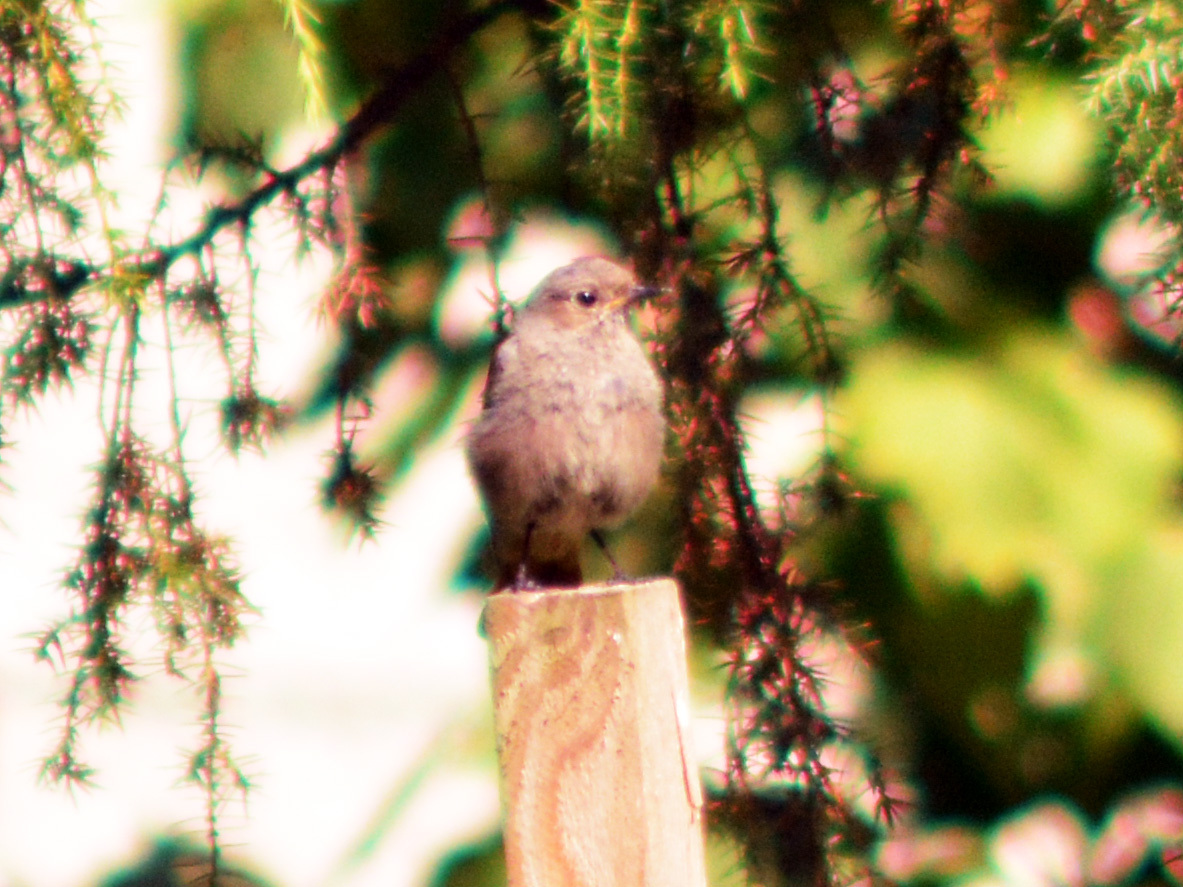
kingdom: Animalia
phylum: Chordata
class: Aves
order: Passeriformes
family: Muscicapidae
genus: Phoenicurus
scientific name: Phoenicurus ochruros
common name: Black redstart
